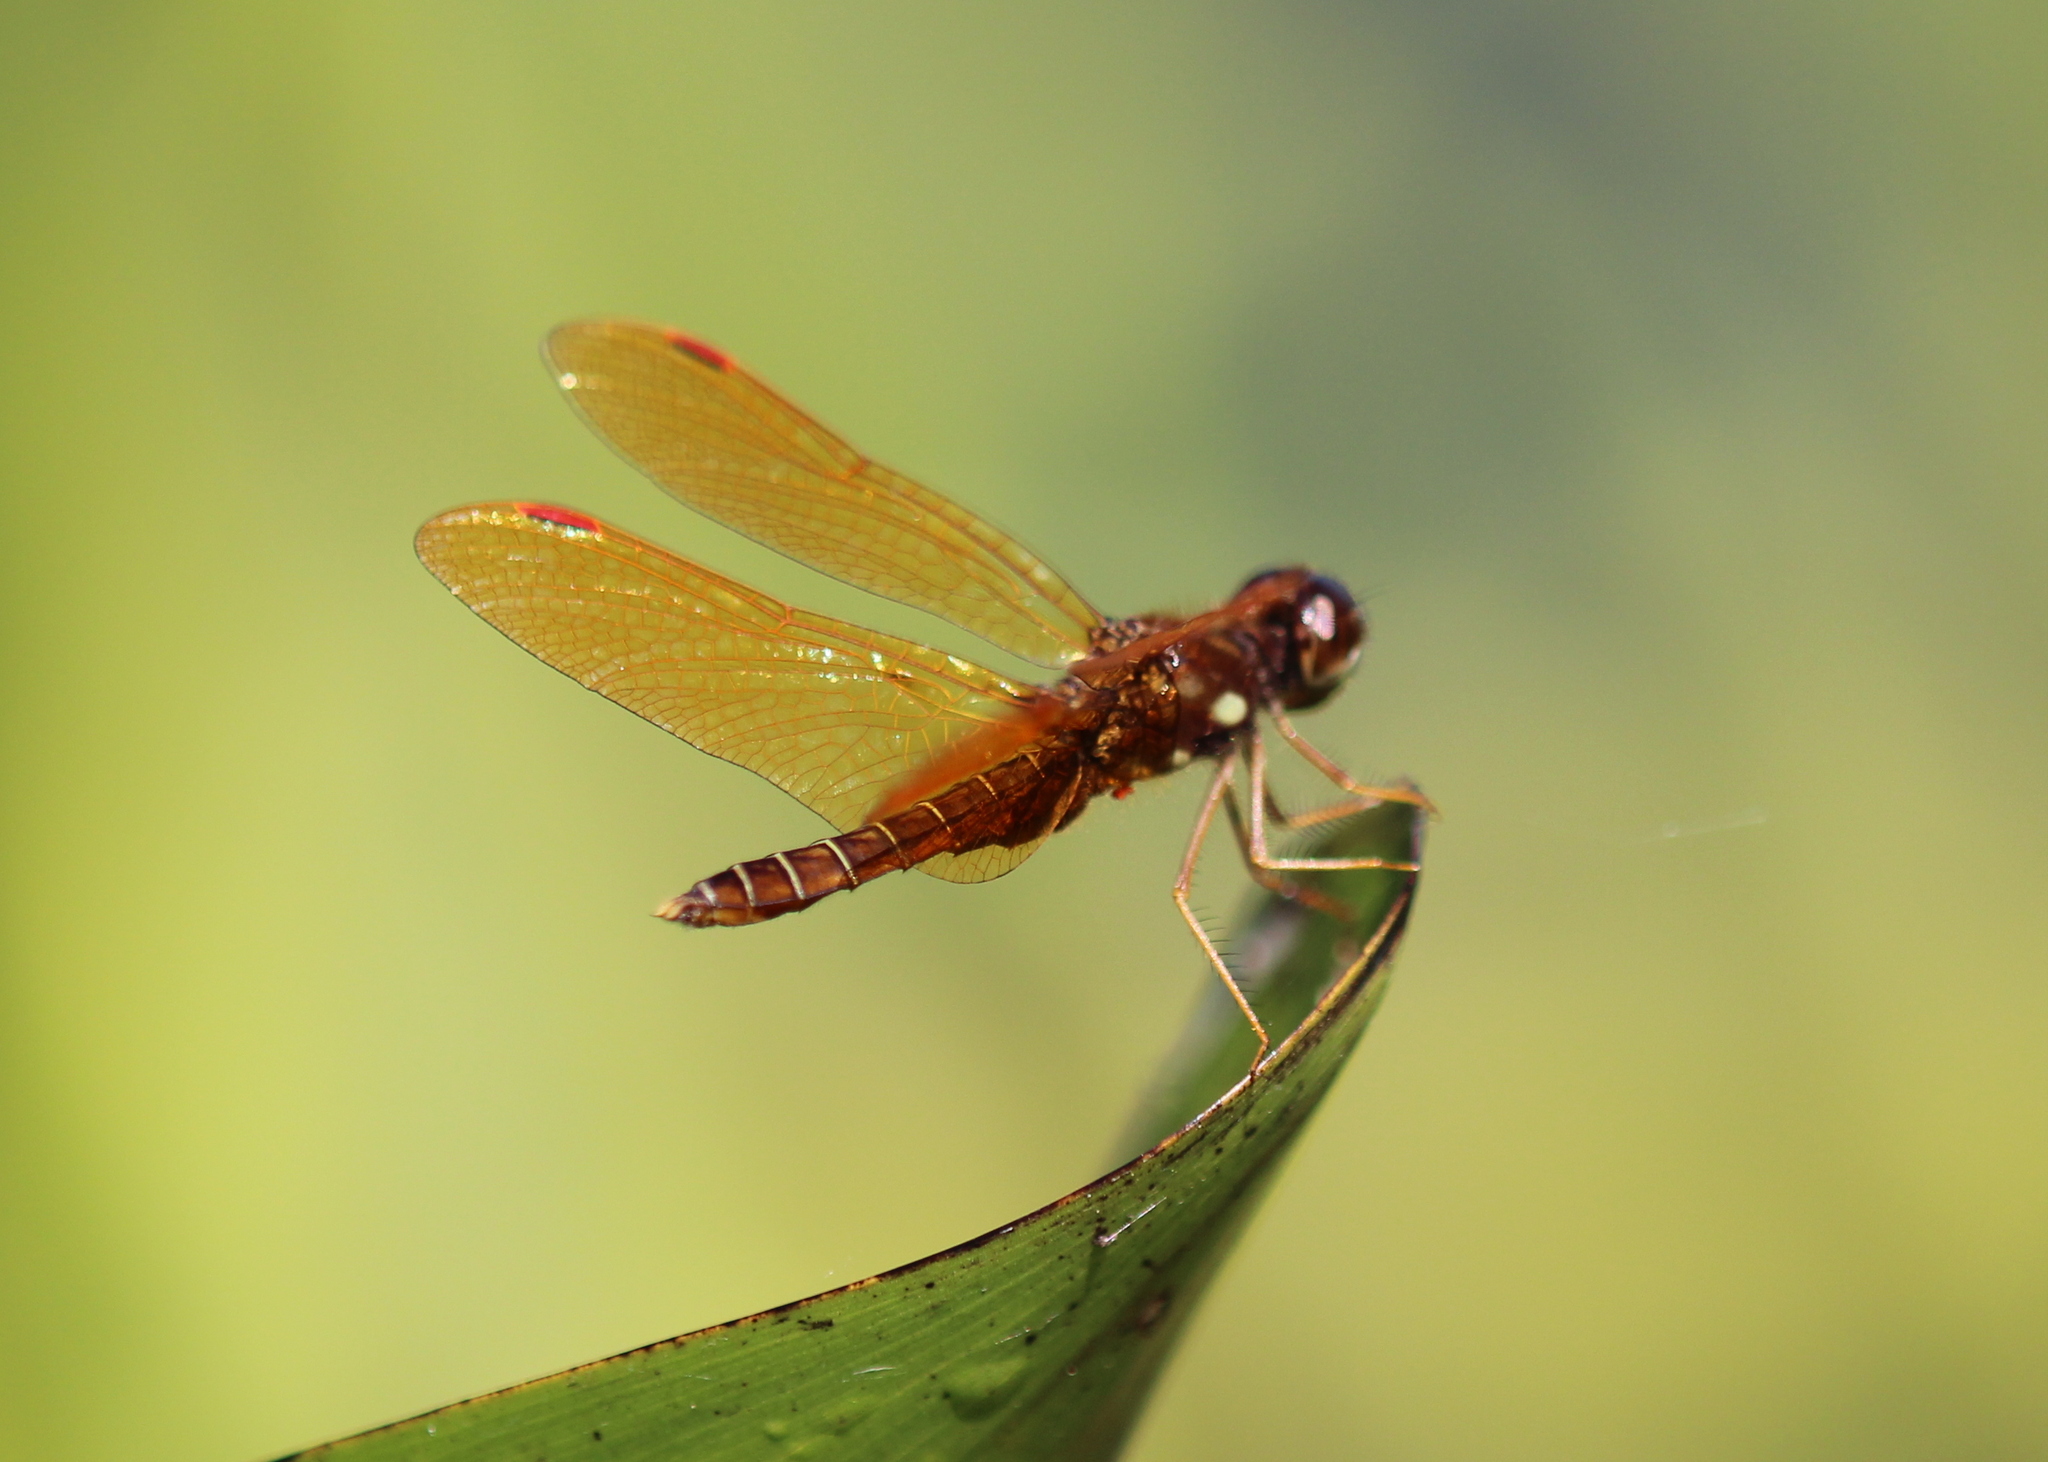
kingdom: Animalia
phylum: Arthropoda
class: Insecta
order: Odonata
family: Libellulidae
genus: Perithemis
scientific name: Perithemis tenera
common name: Eastern amberwing
